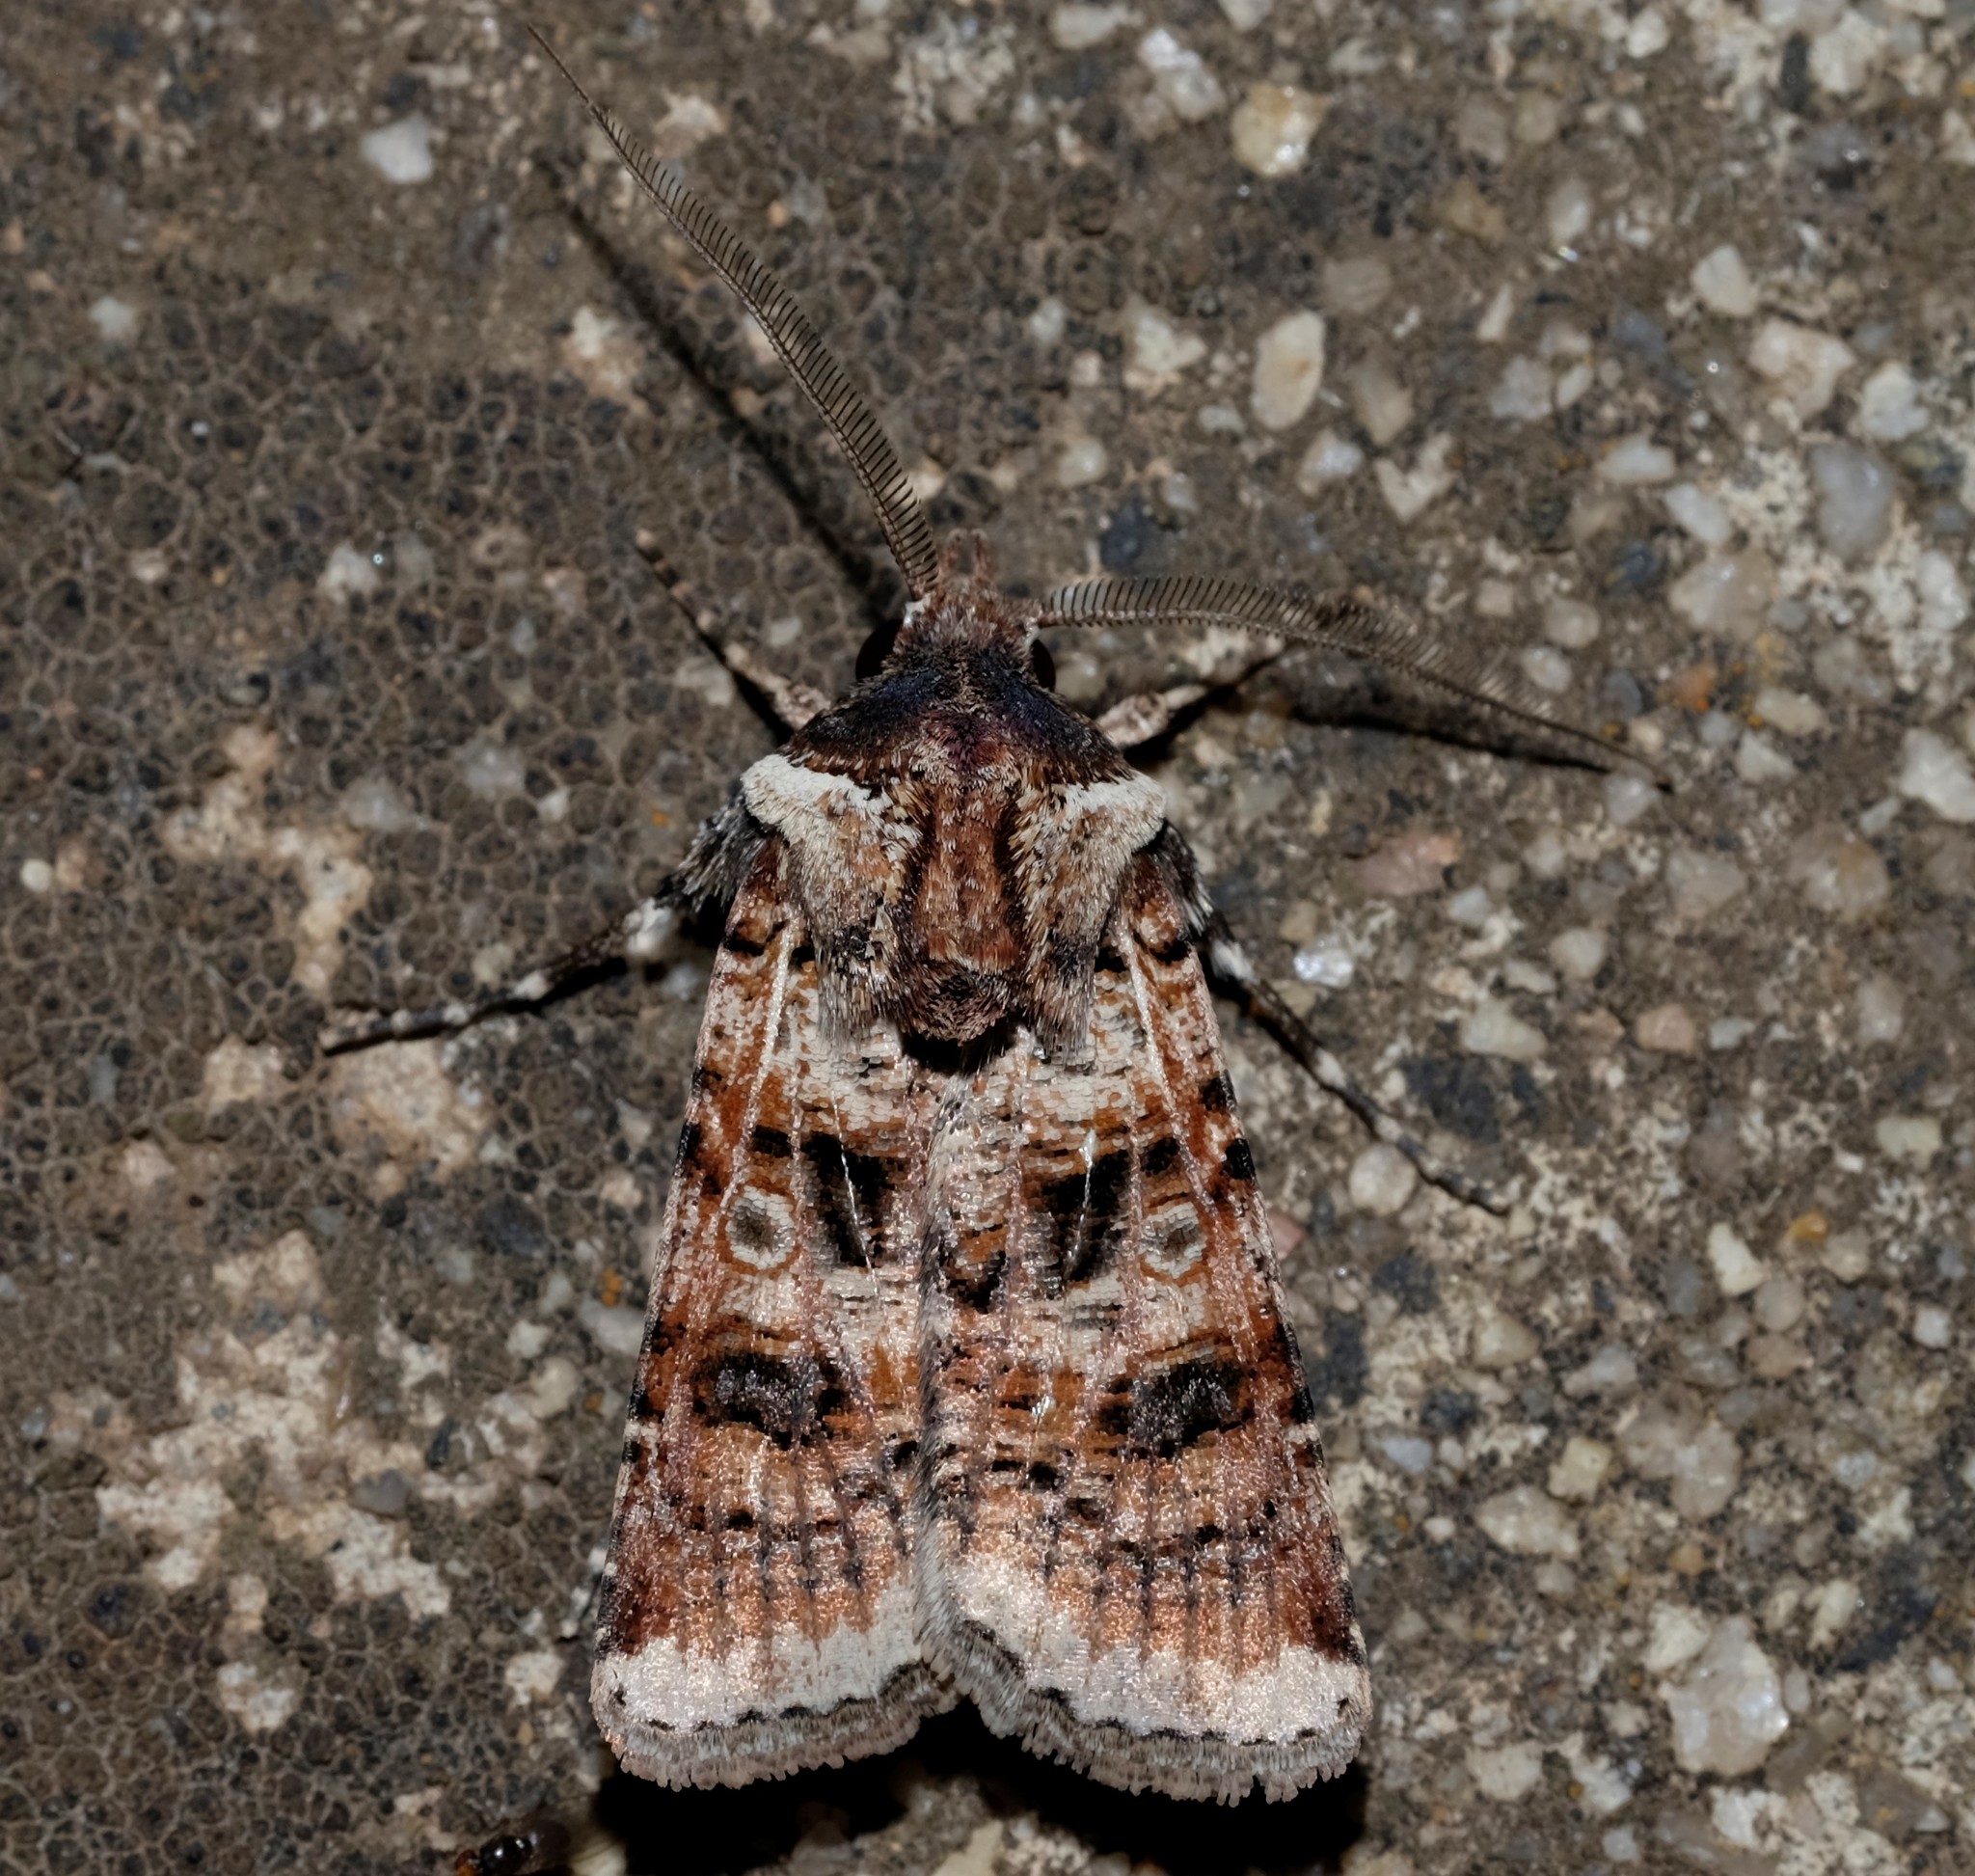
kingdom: Animalia
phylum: Arthropoda
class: Insecta
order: Lepidoptera
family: Noctuidae
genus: Agrotis
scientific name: Agrotis porphyricollis
